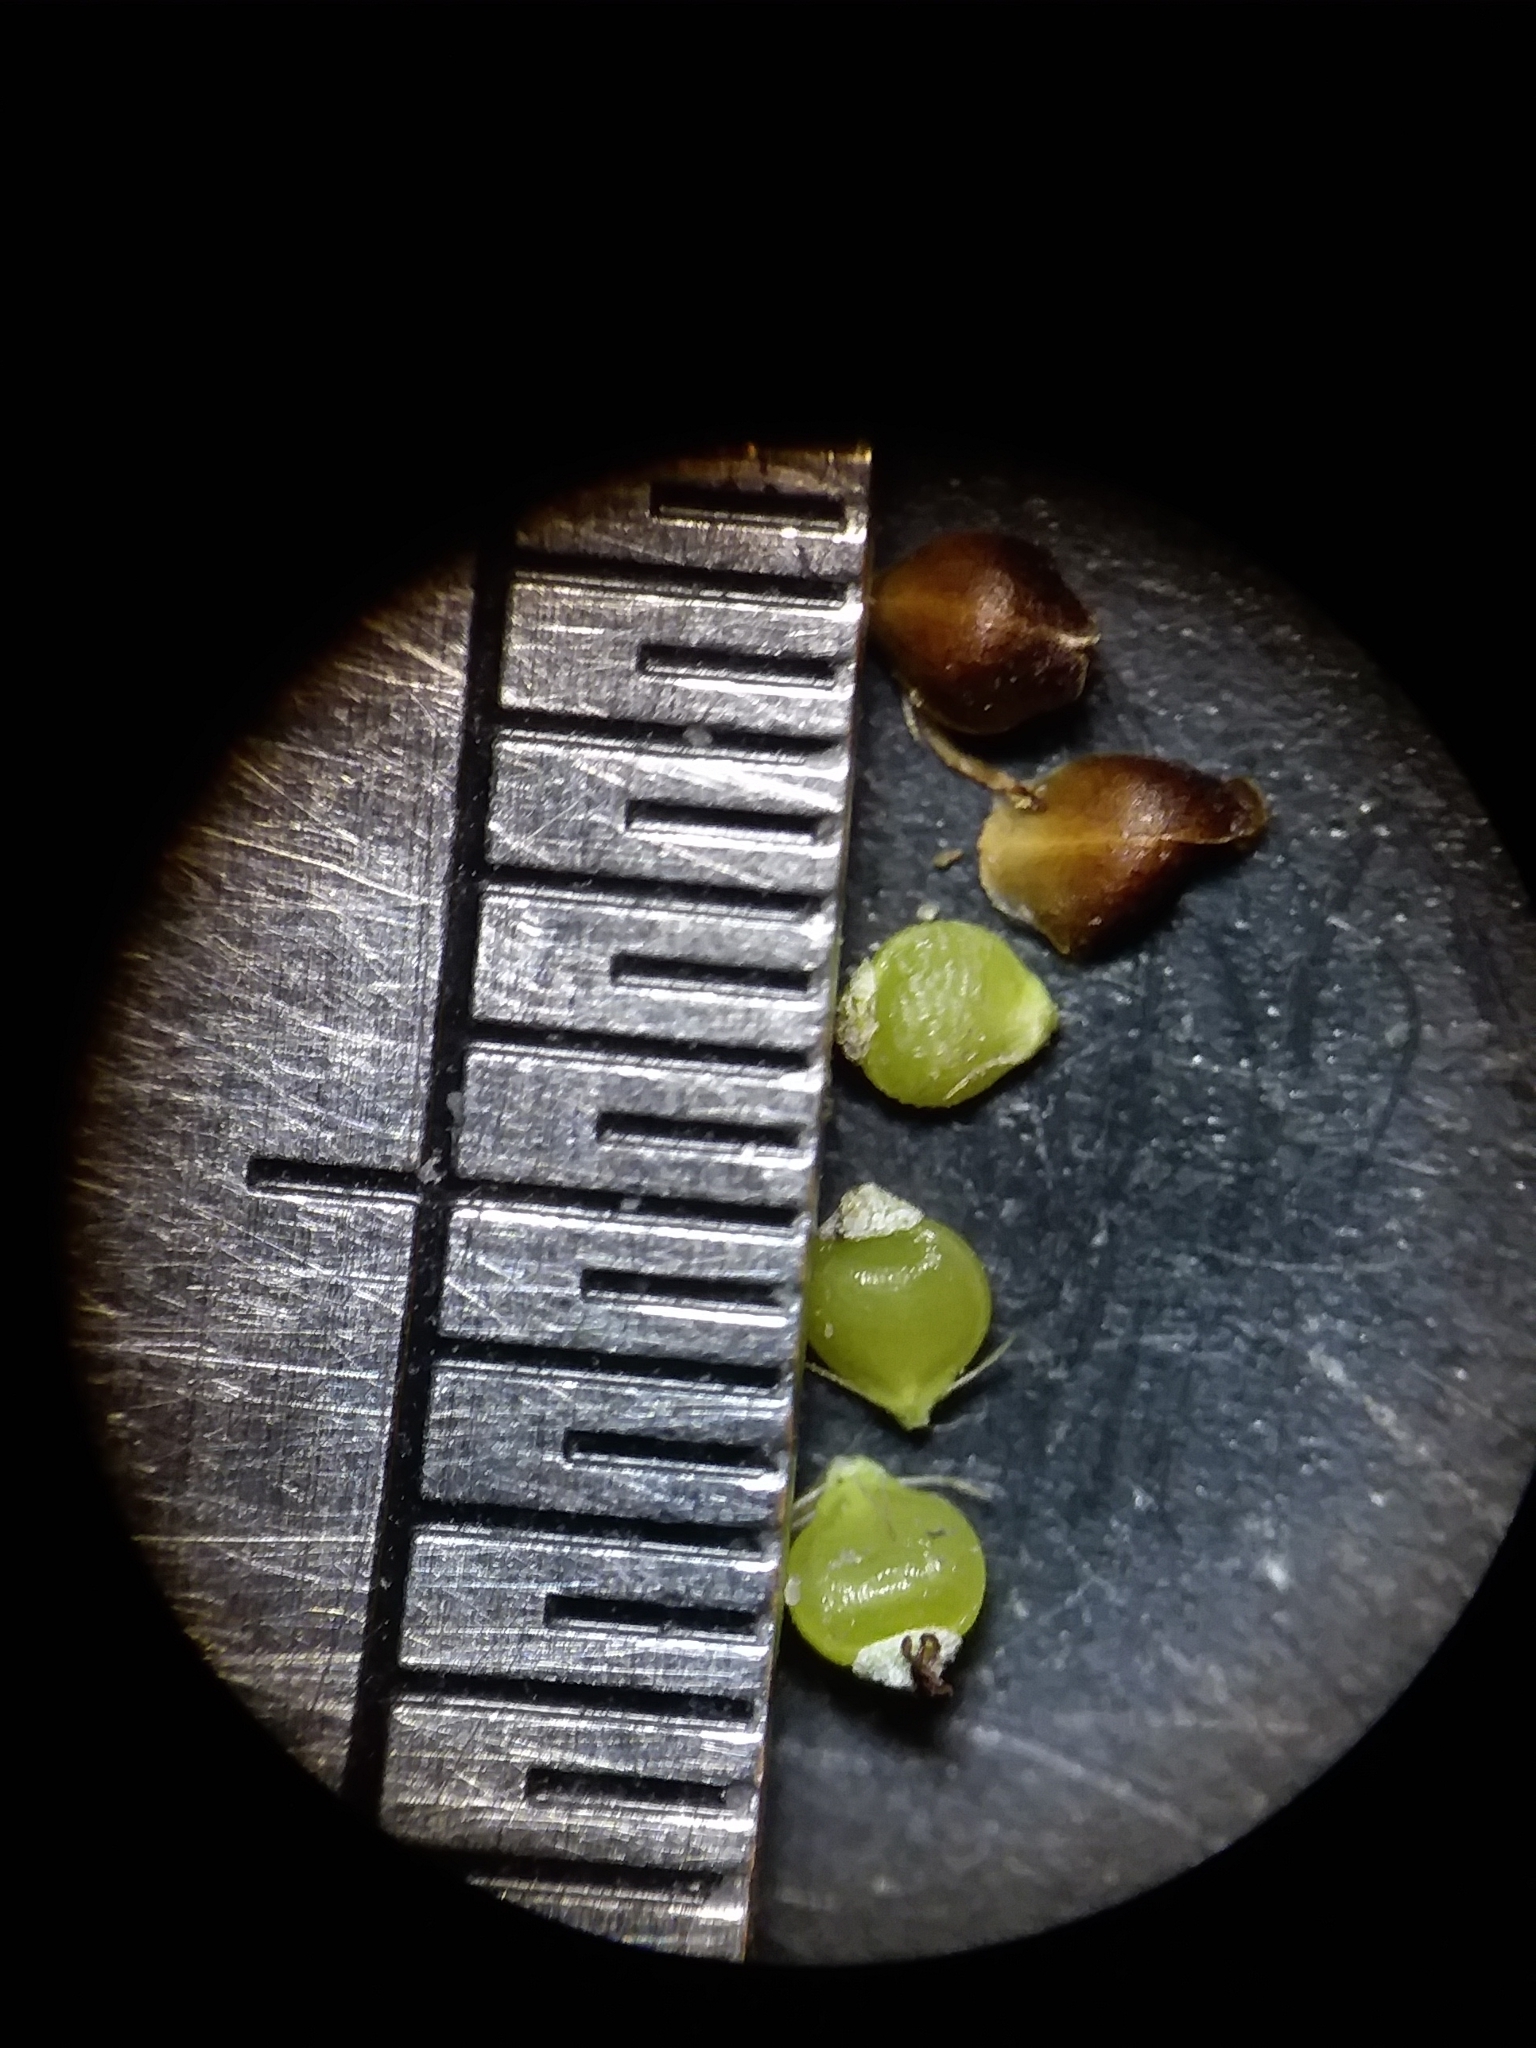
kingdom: Plantae
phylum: Tracheophyta
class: Liliopsida
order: Poales
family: Cyperaceae
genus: Rhynchospora
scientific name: Rhynchospora globularis
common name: Globe beaksedge
